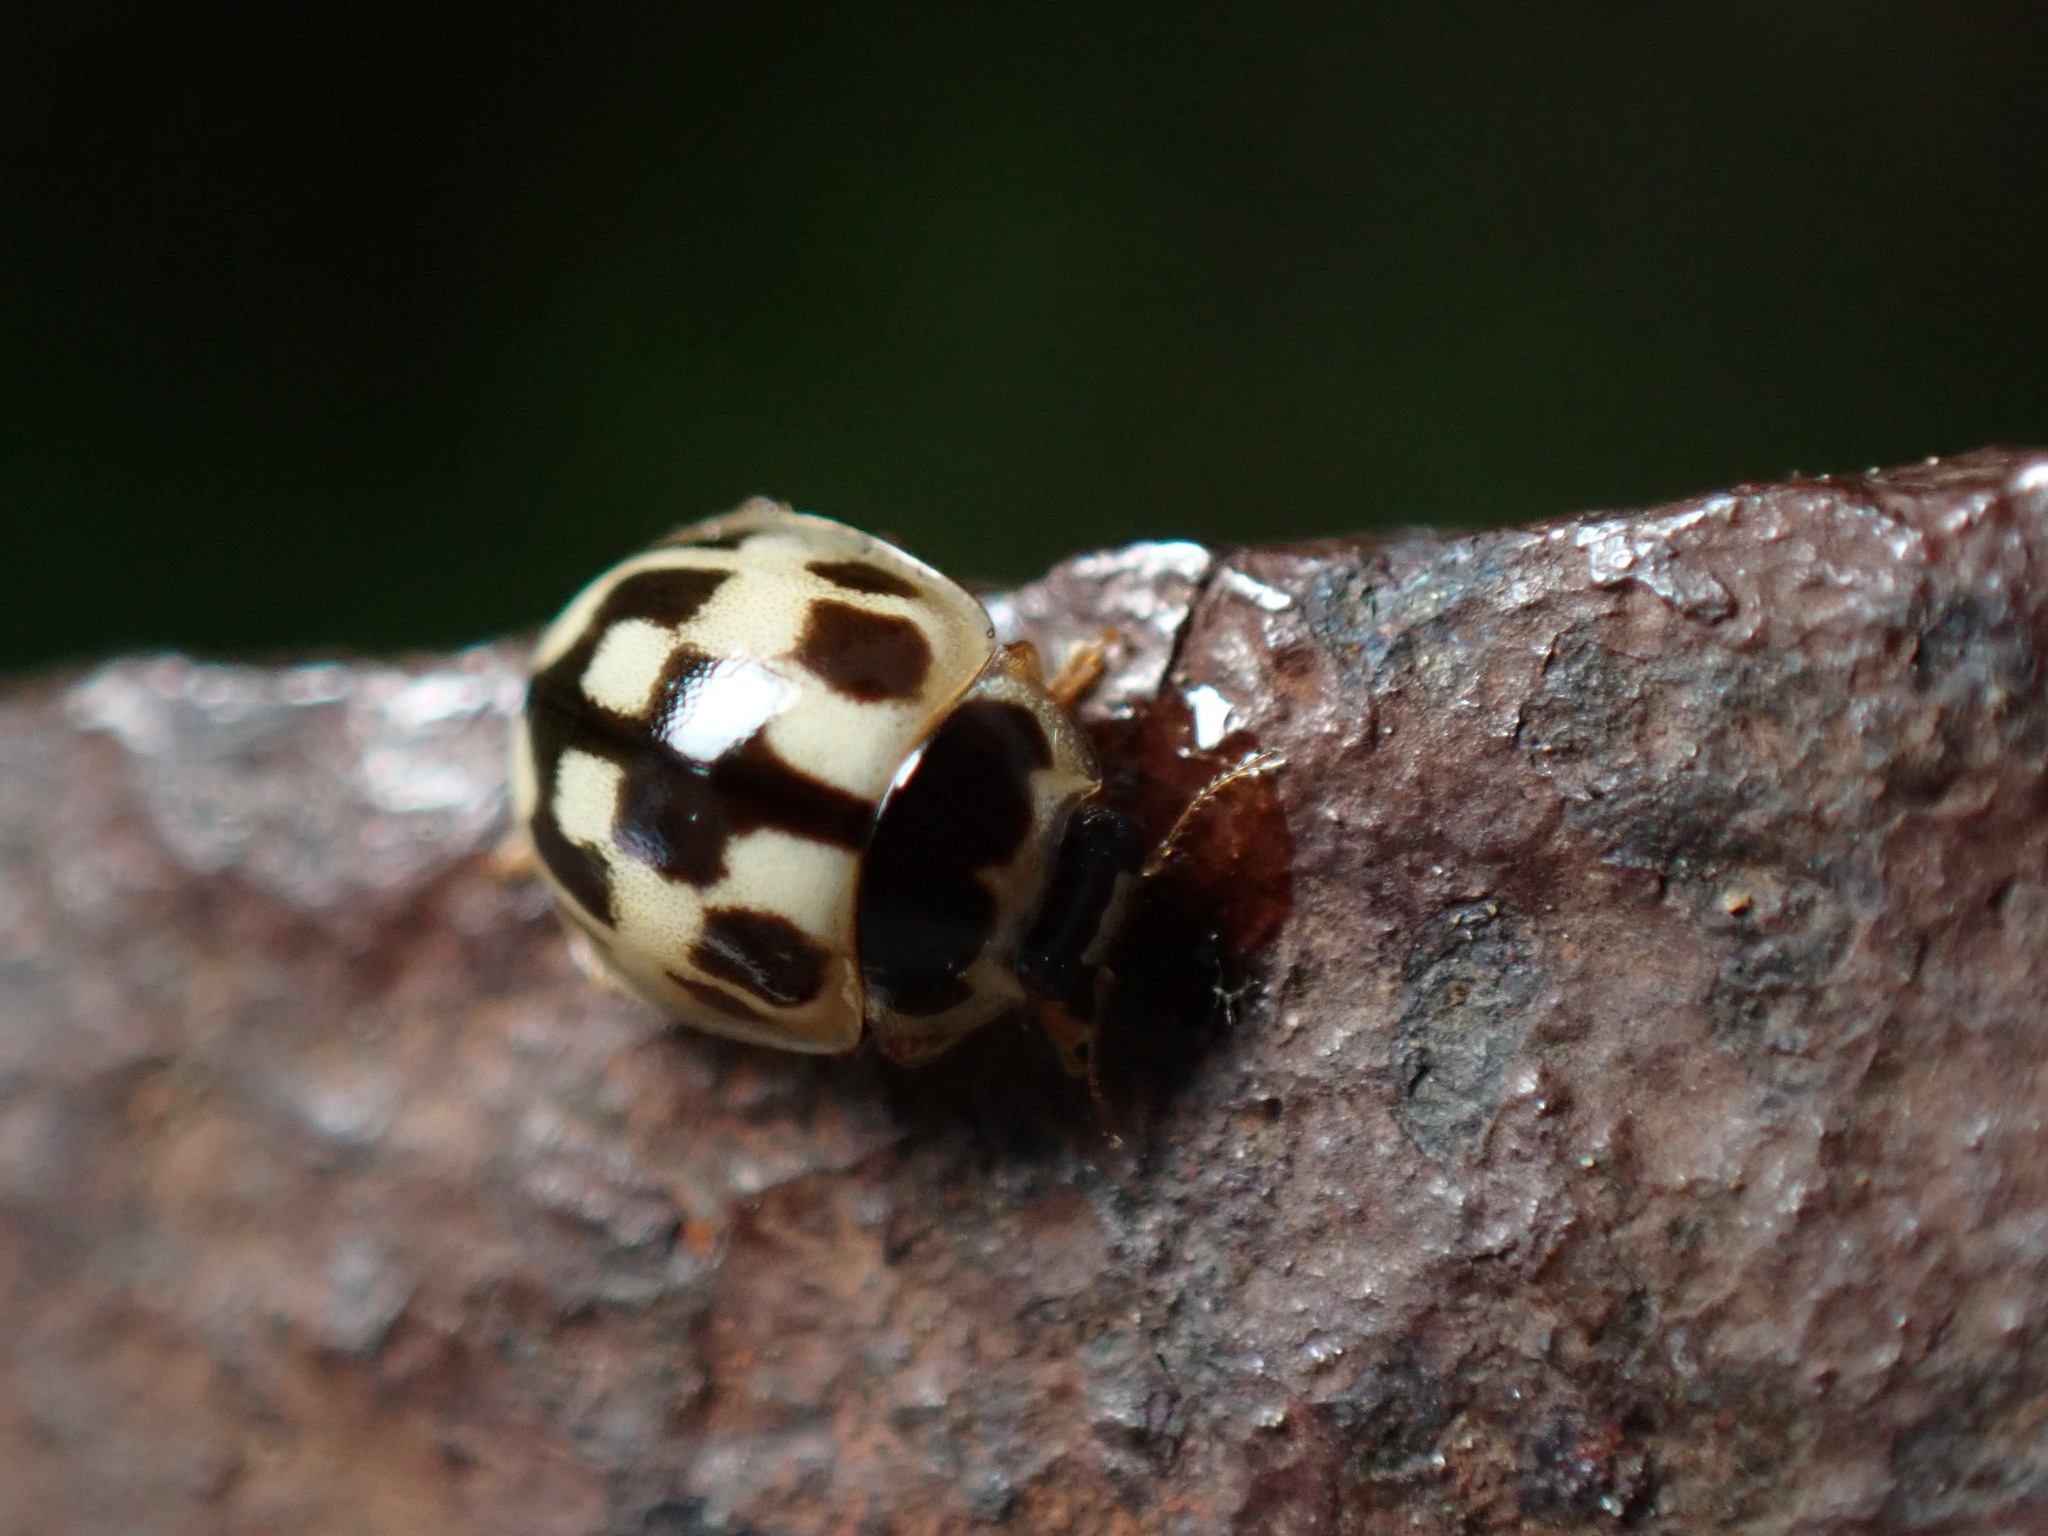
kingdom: Animalia
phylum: Arthropoda
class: Insecta
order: Coleoptera
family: Coccinellidae
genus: Propylaea
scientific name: Propylaea quatuordecimpunctata
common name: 14-spotted ladybird beetle
